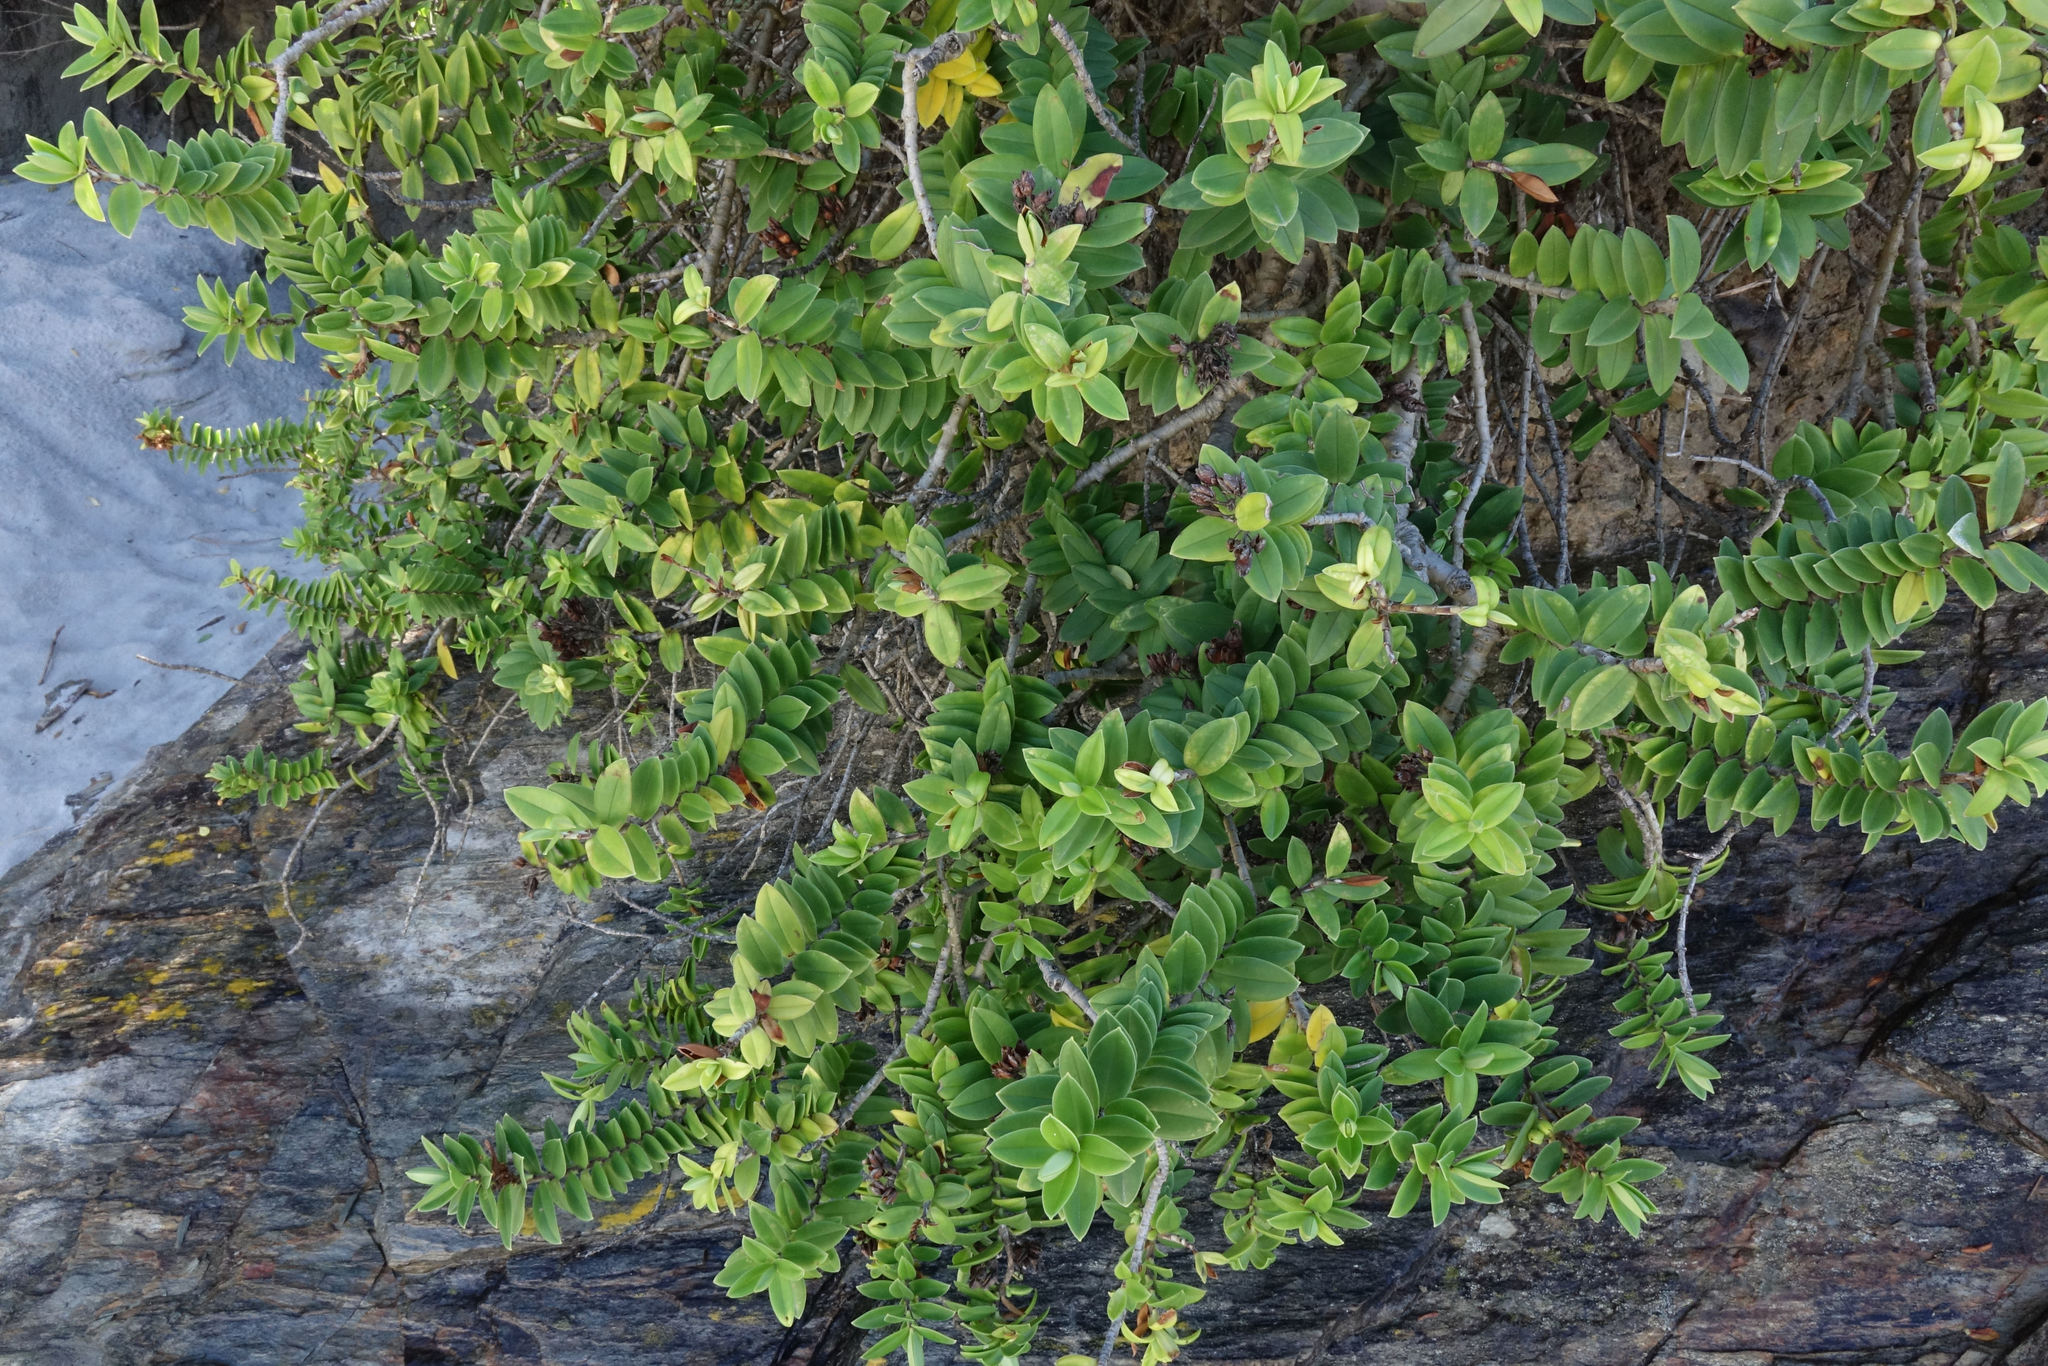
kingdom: Plantae
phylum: Tracheophyta
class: Magnoliopsida
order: Lamiales
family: Plantaginaceae
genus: Veronica
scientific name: Veronica elliptica
